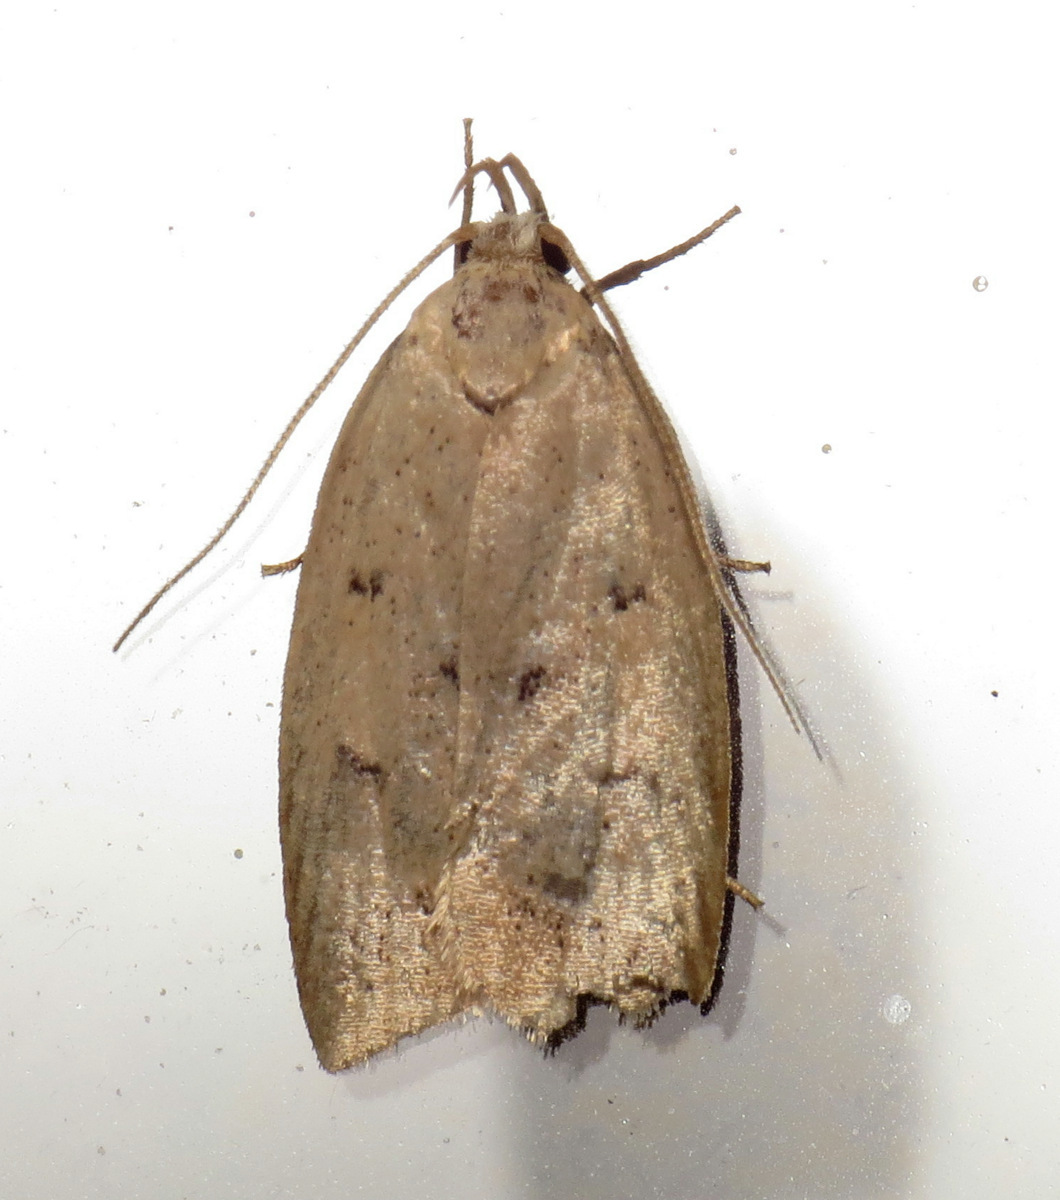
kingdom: Animalia
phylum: Arthropoda
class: Insecta
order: Lepidoptera
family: Peleopodidae
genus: Machimia
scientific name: Machimia tentoriferella
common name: Gold-striped leaftier moth
